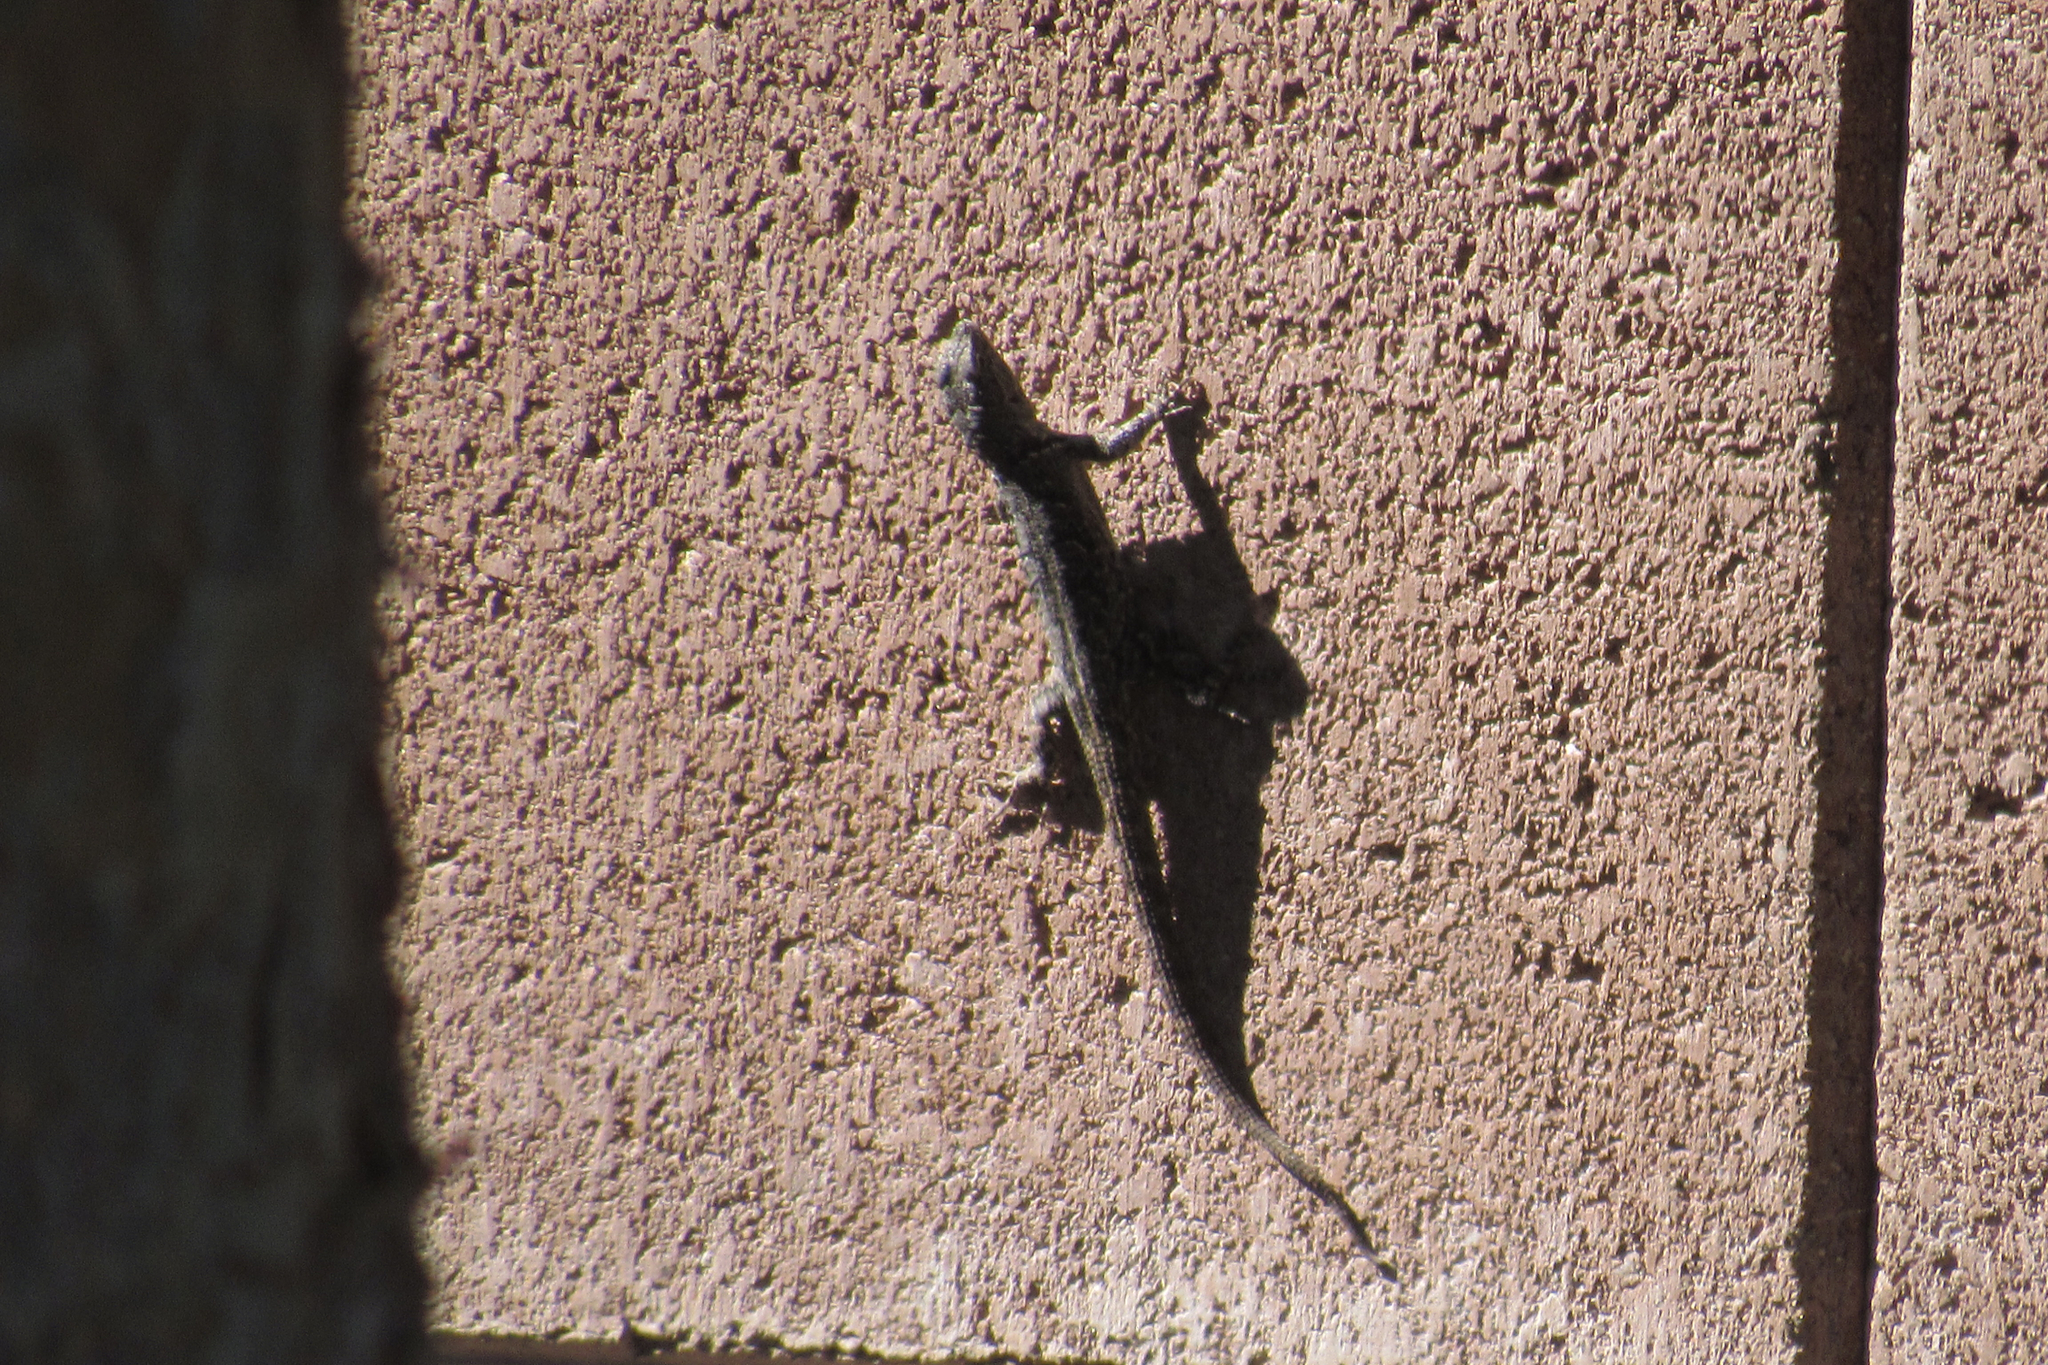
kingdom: Animalia
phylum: Chordata
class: Squamata
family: Phrynosomatidae
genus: Urosaurus
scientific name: Urosaurus ornatus
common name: Ornate tree lizard
